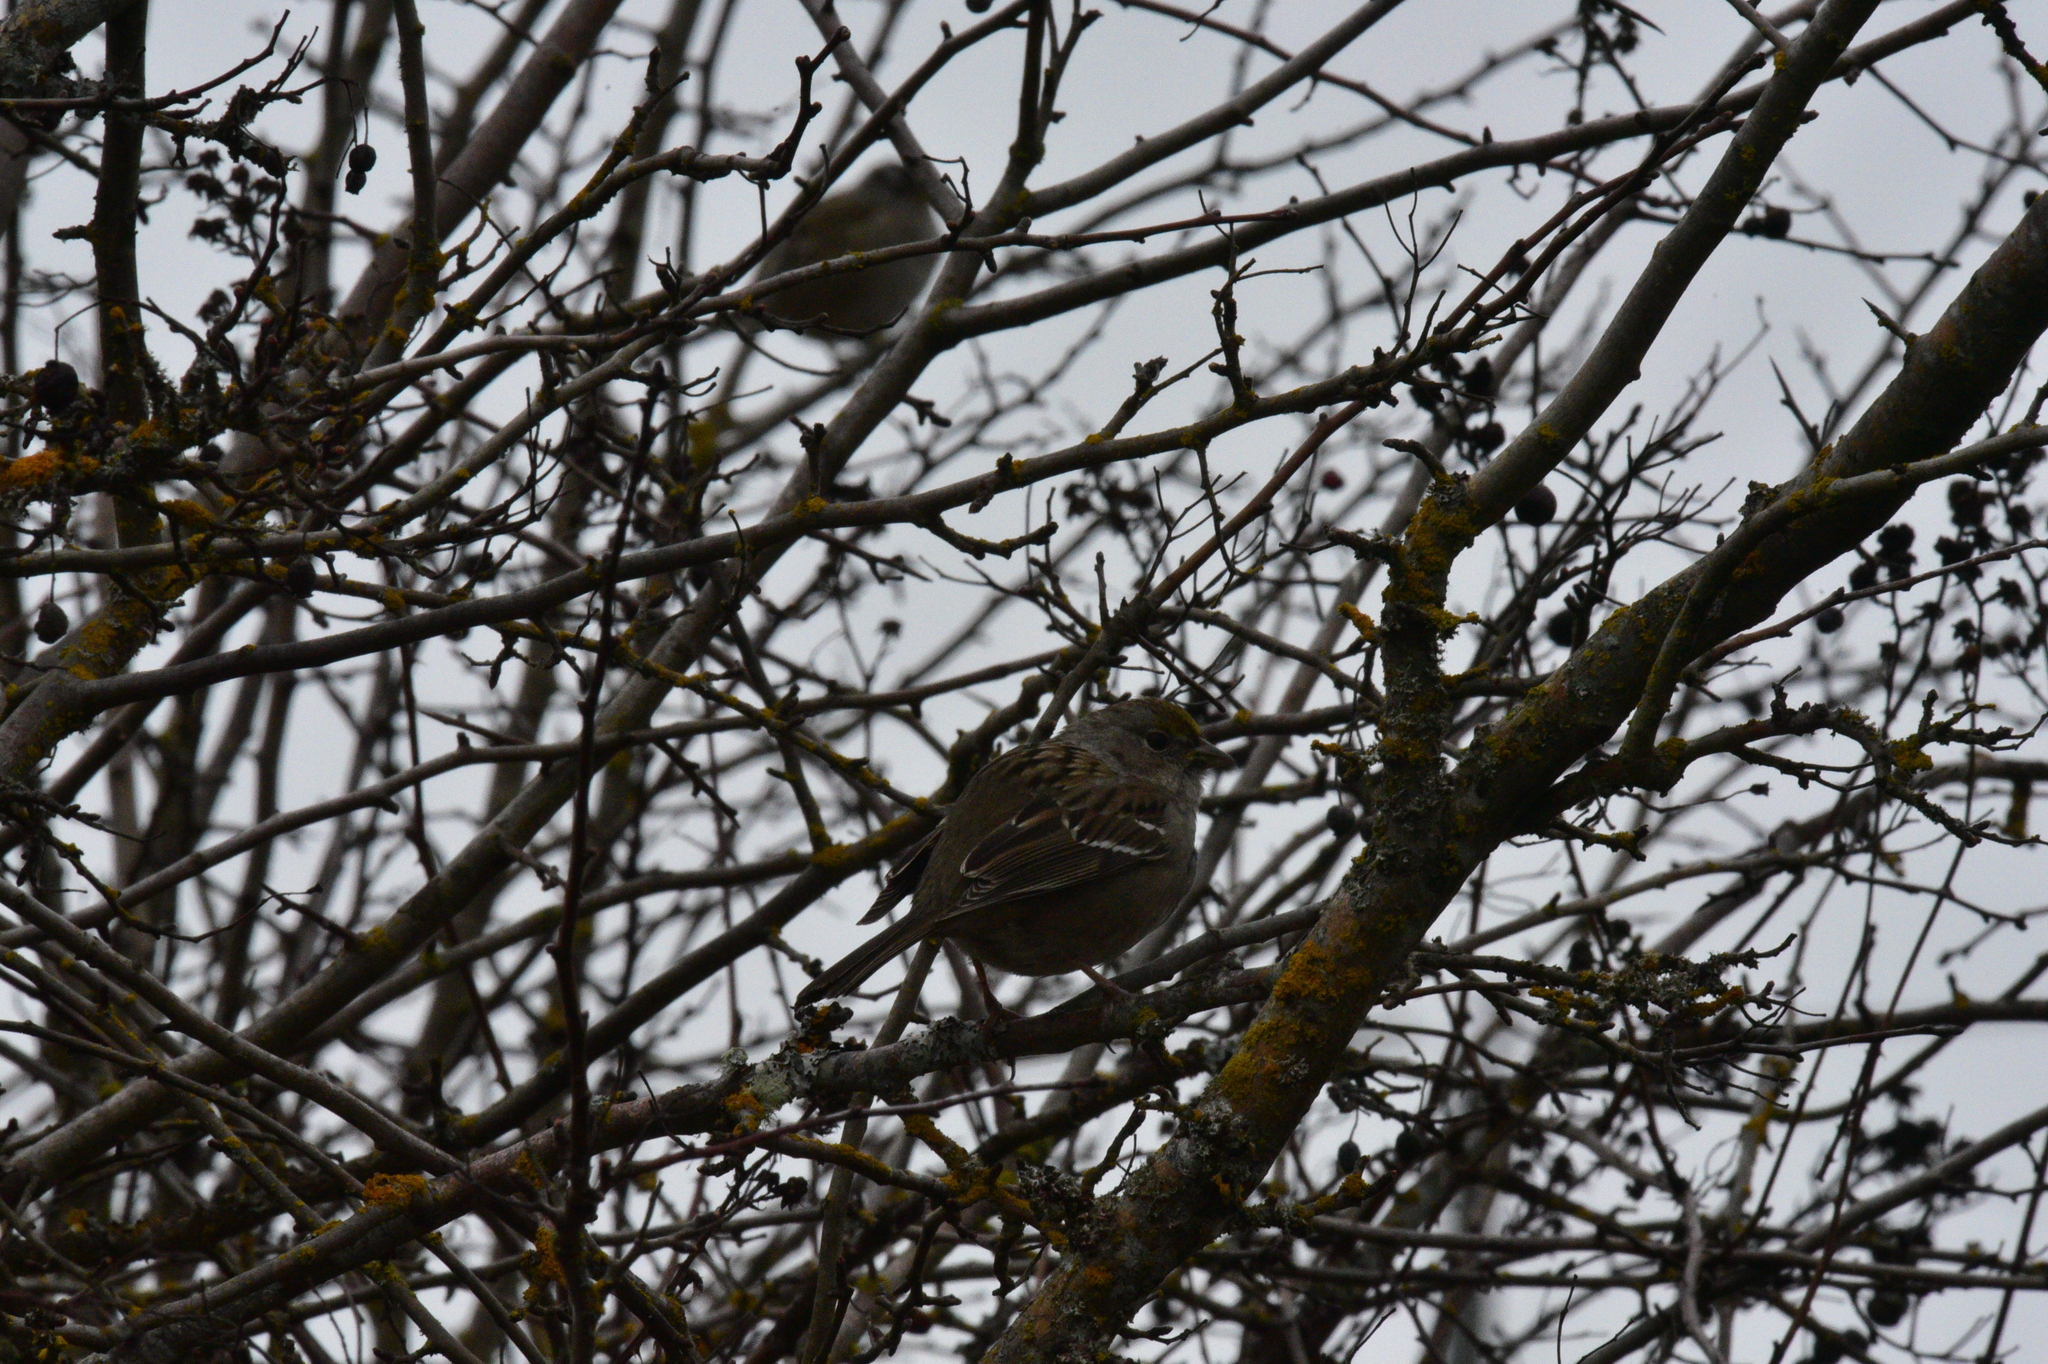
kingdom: Animalia
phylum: Chordata
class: Aves
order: Passeriformes
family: Passerellidae
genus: Zonotrichia
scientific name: Zonotrichia atricapilla
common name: Golden-crowned sparrow
